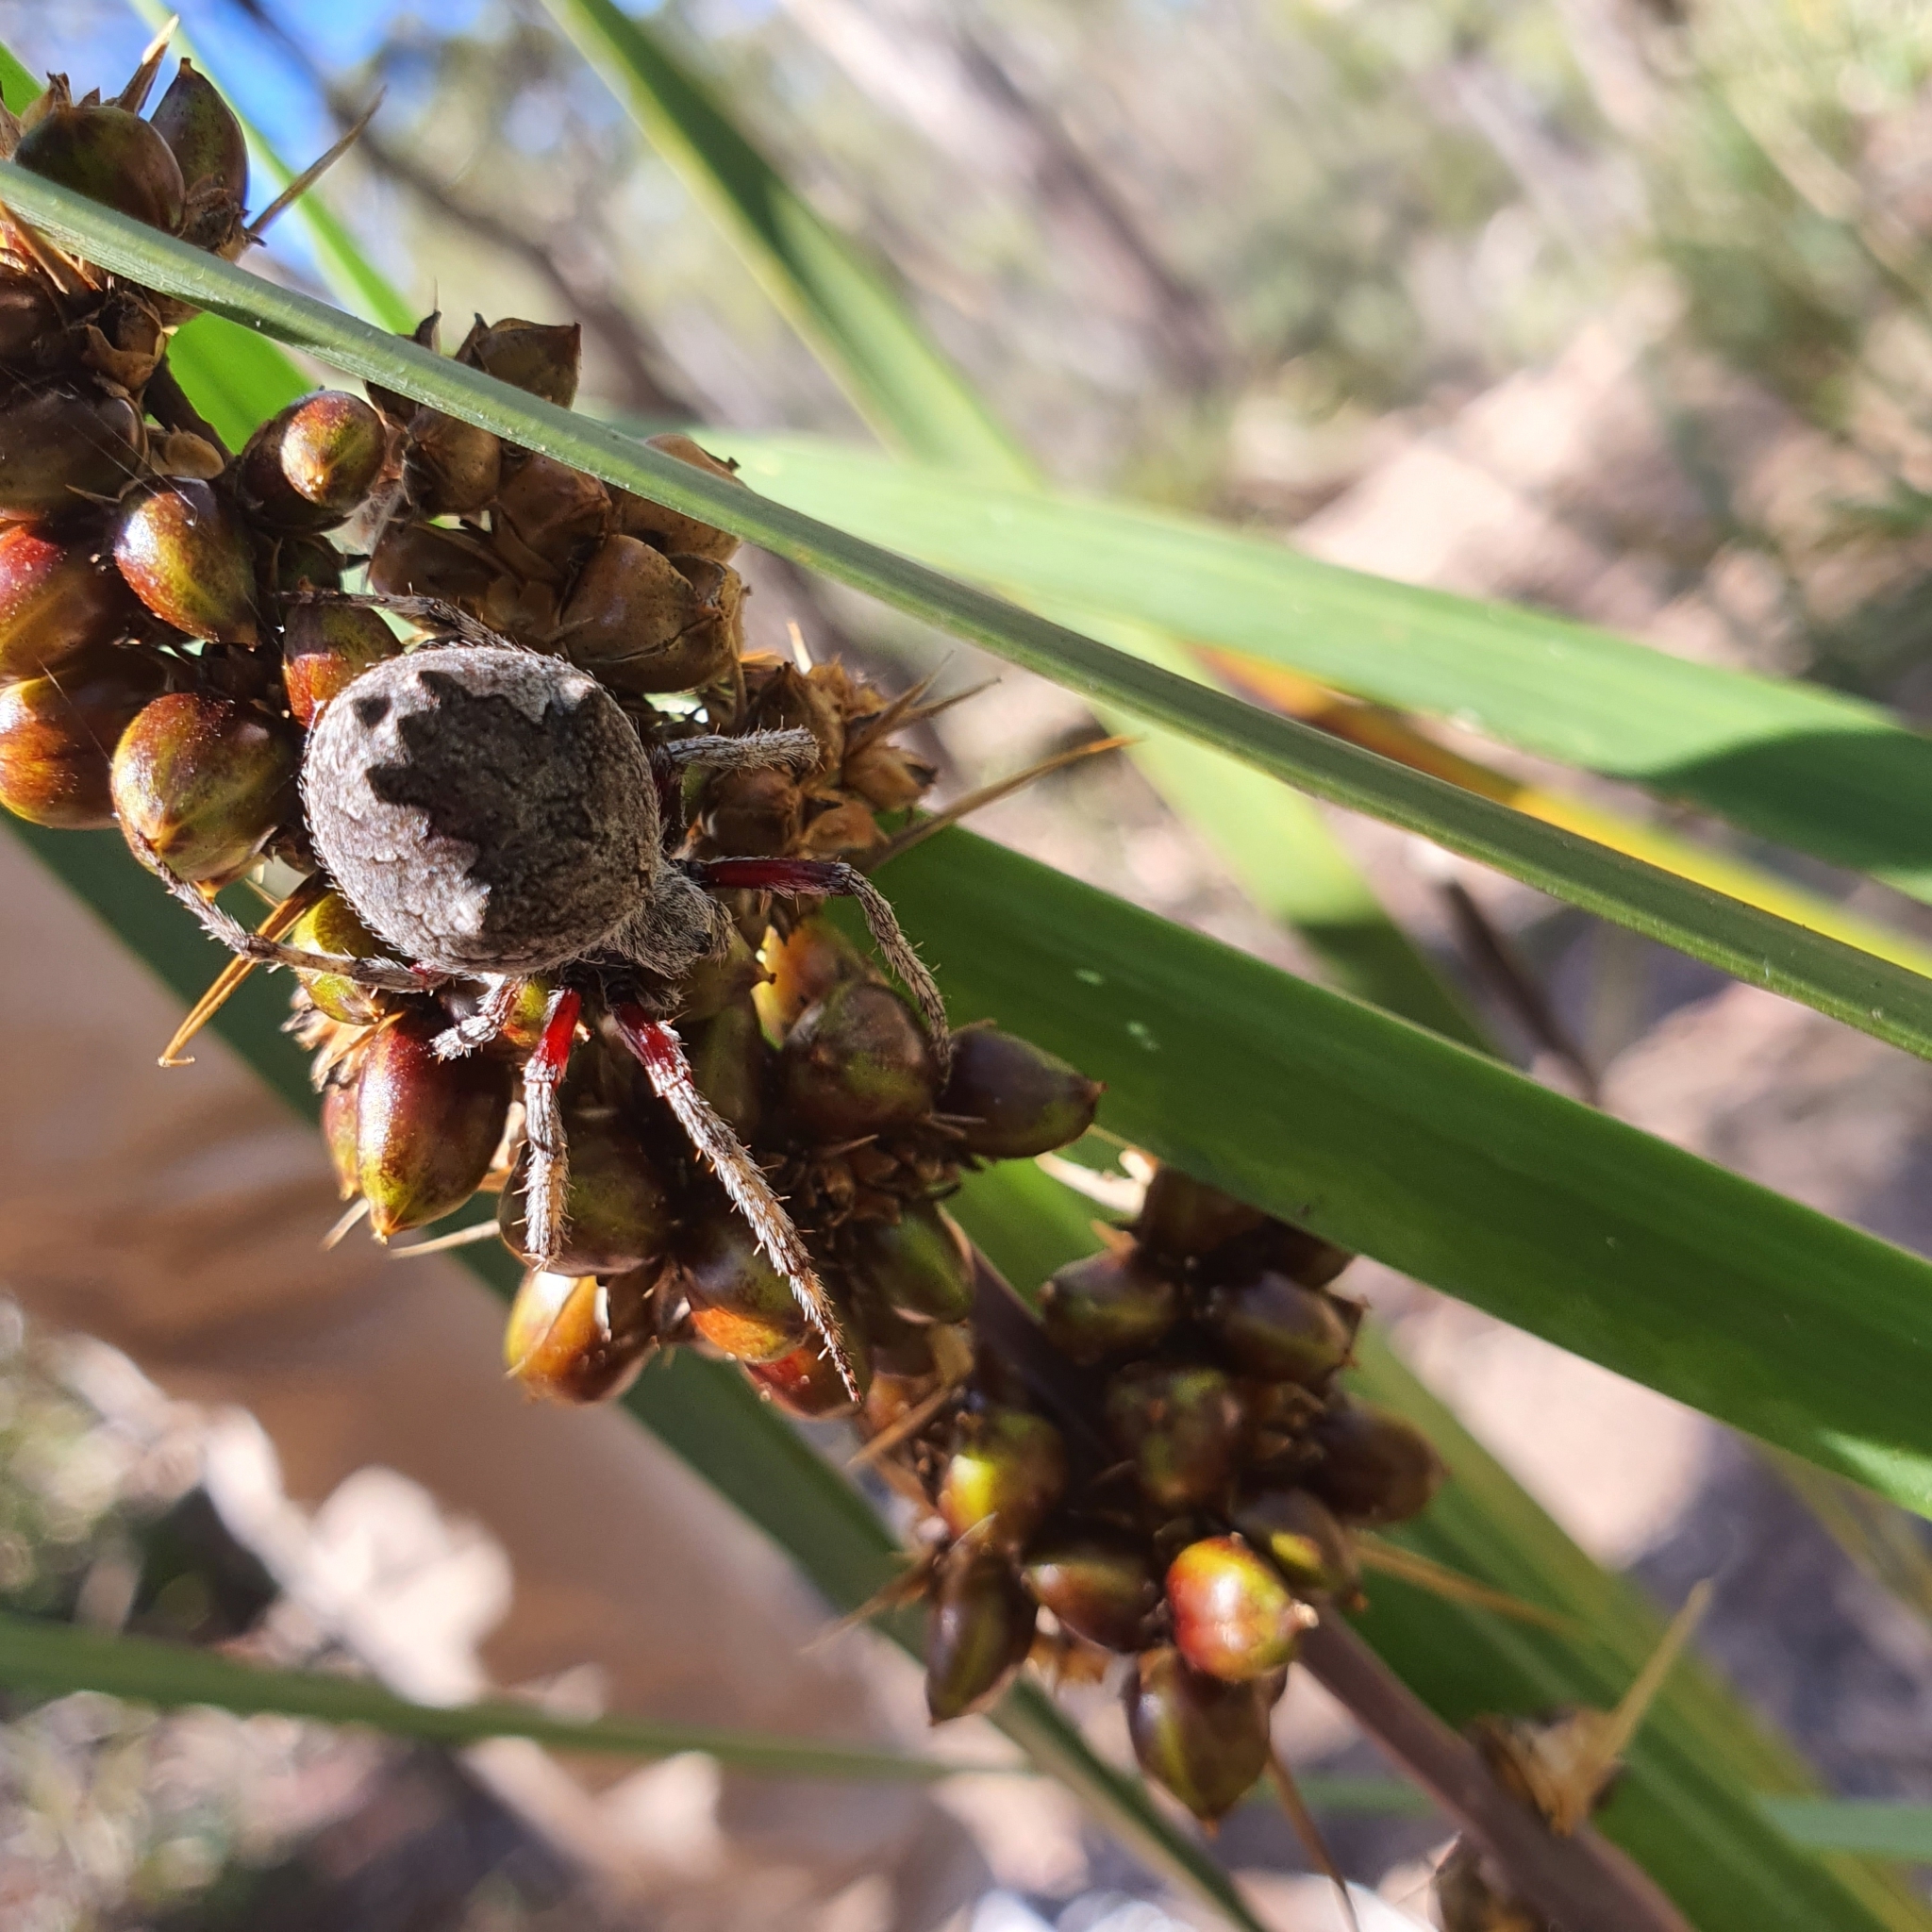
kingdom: Animalia
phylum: Arthropoda
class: Arachnida
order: Araneae
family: Araneidae
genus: Eriophora
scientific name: Eriophora pustulosa
